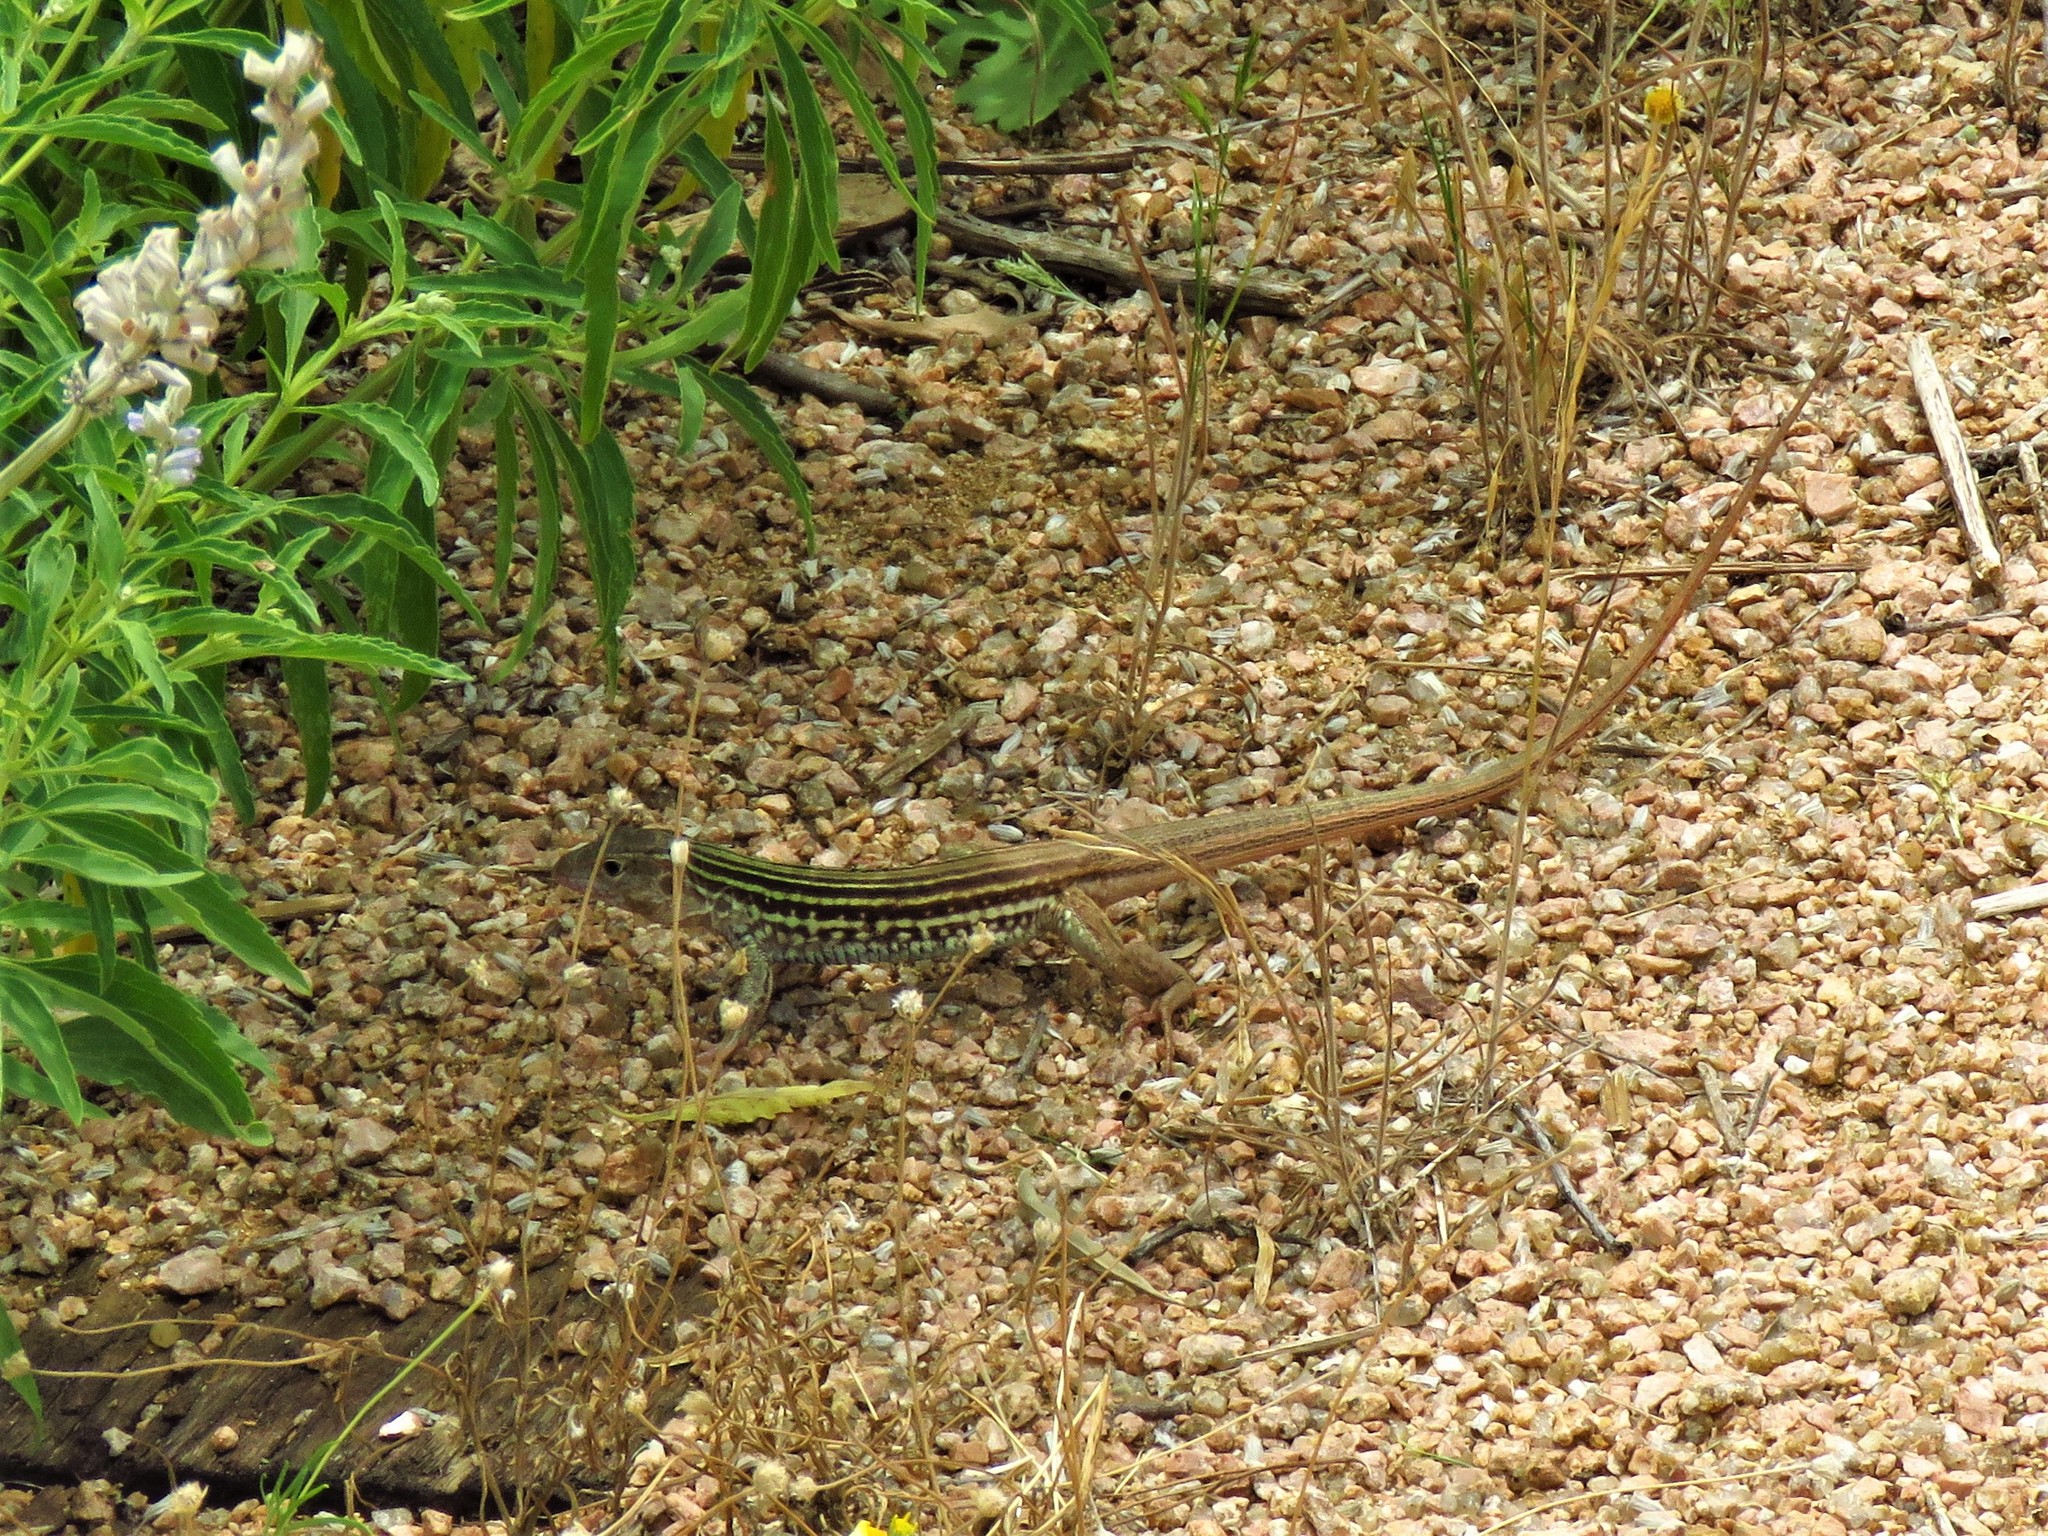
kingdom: Animalia
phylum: Chordata
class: Squamata
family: Teiidae
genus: Aspidoscelis
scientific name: Aspidoscelis gularis
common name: Eastern spotted whiptail
